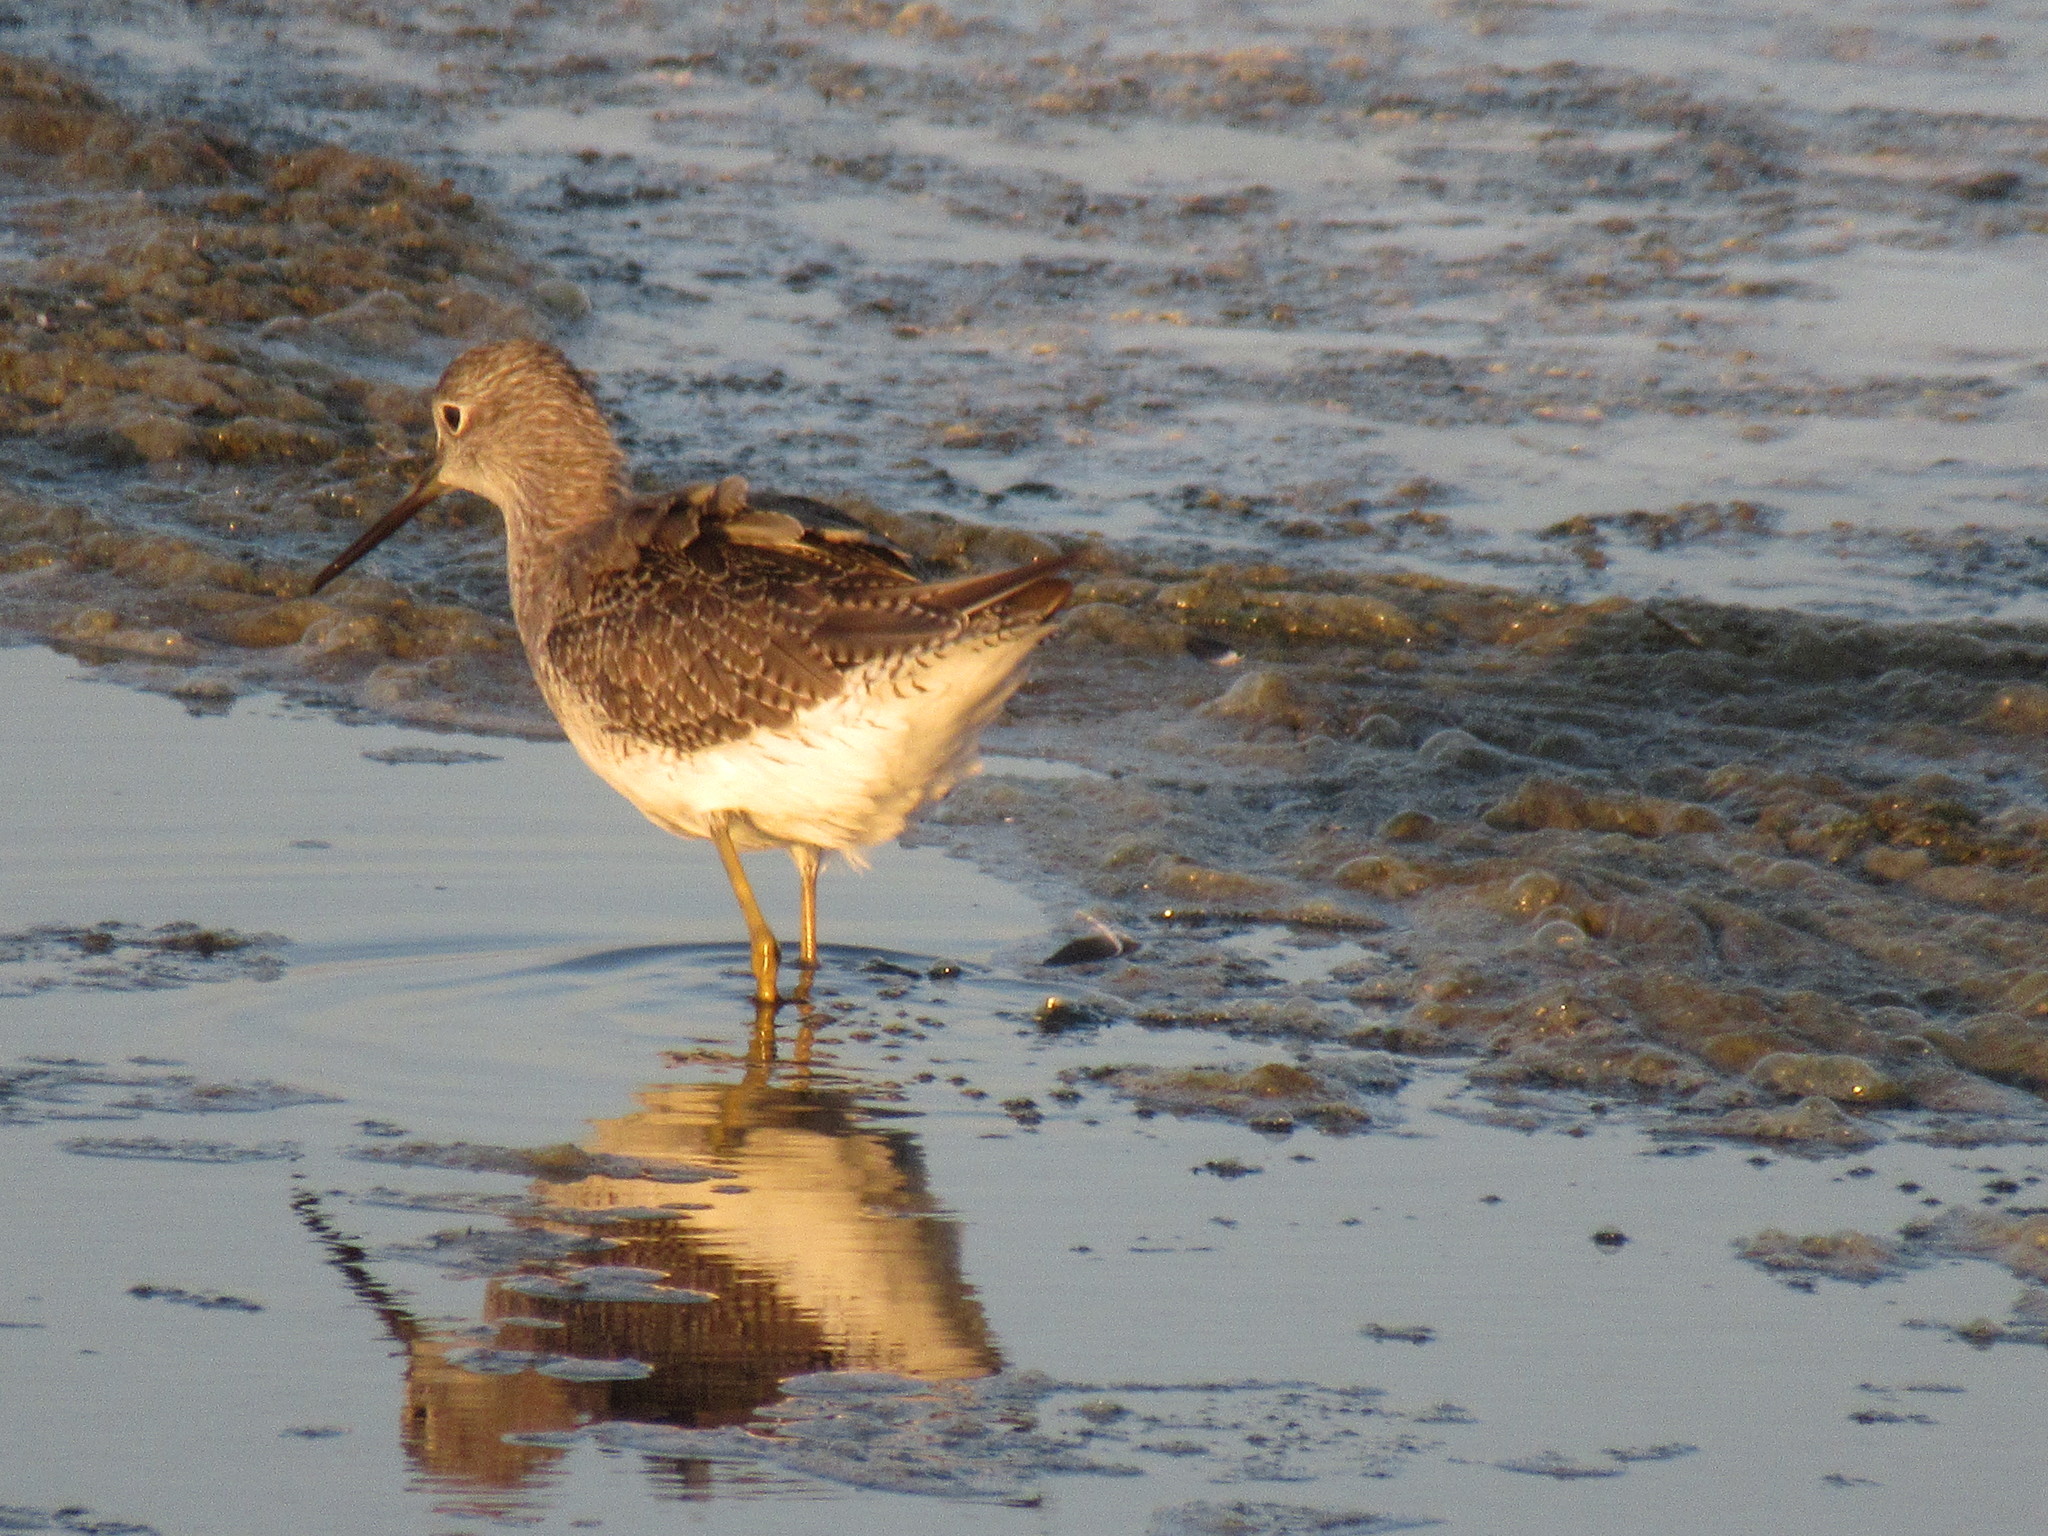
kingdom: Animalia
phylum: Chordata
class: Aves
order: Charadriiformes
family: Scolopacidae
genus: Tringa
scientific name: Tringa melanoleuca
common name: Greater yellowlegs
